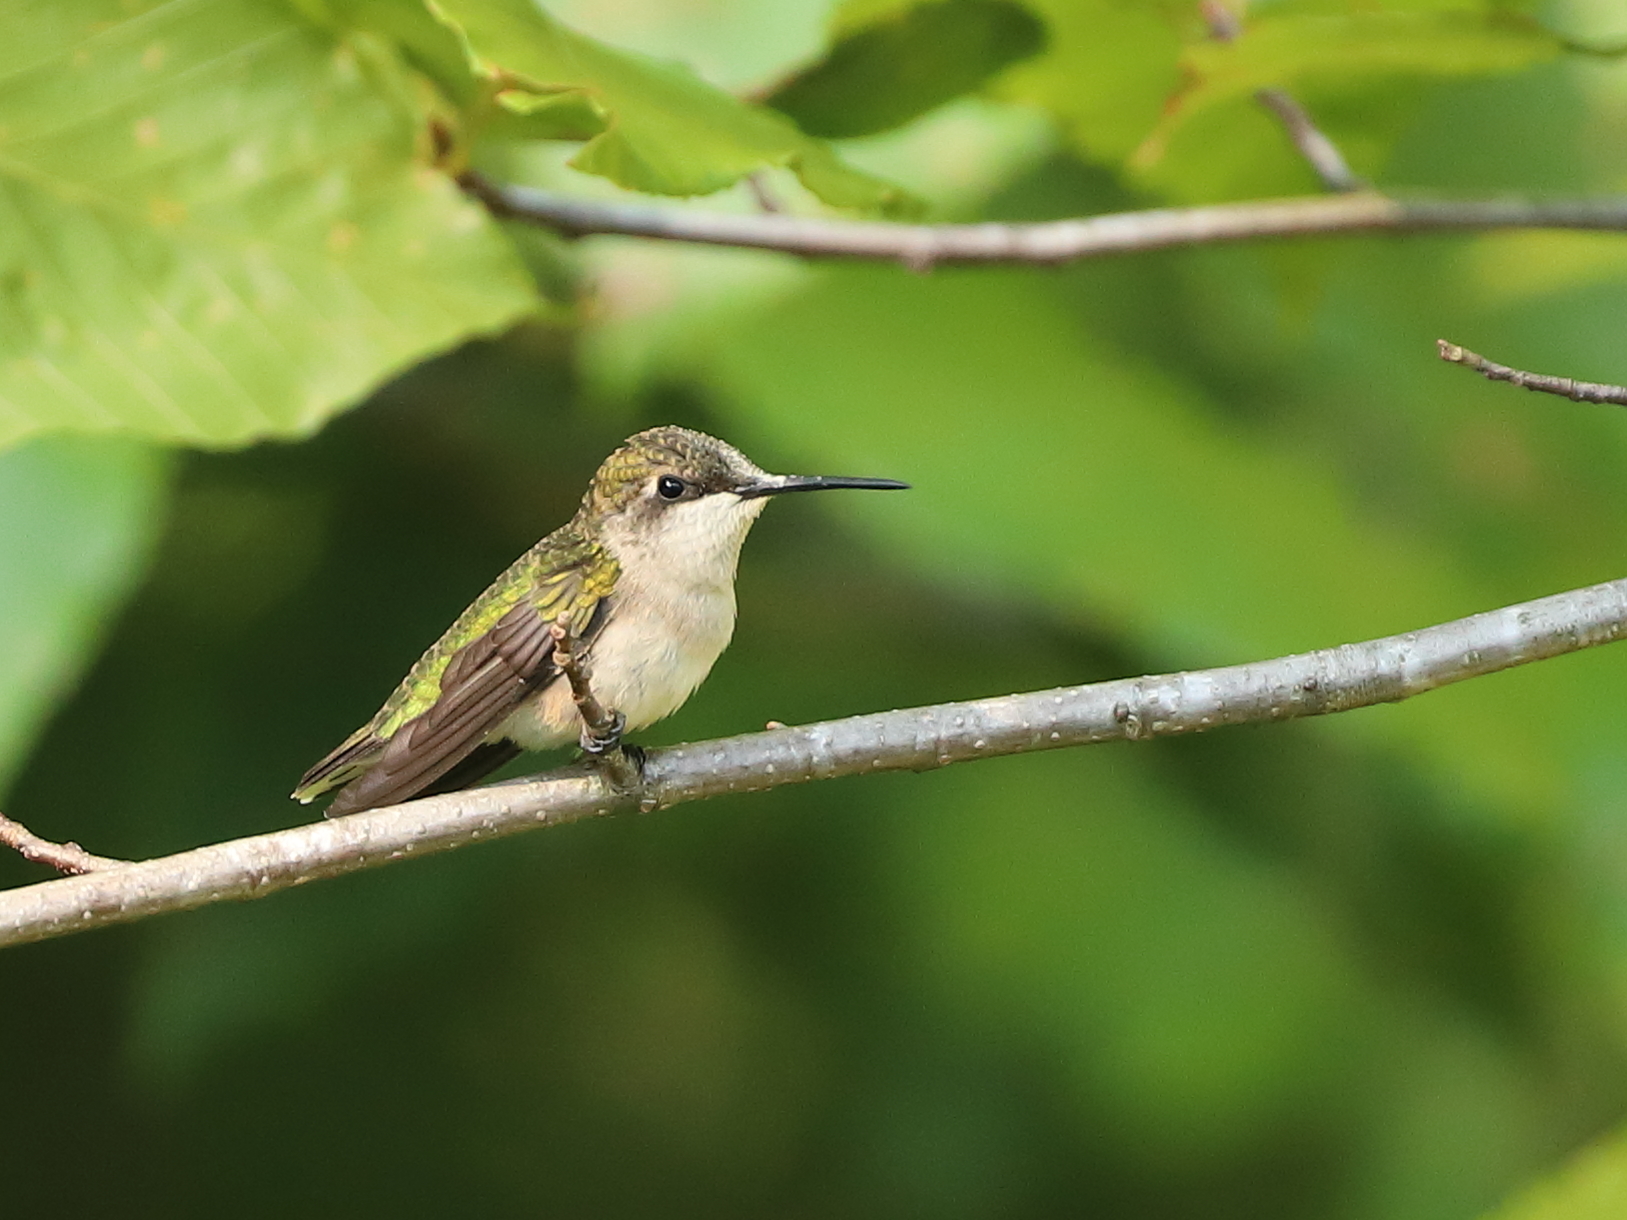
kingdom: Animalia
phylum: Chordata
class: Aves
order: Apodiformes
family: Trochilidae
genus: Archilochus
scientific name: Archilochus colubris
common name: Ruby-throated hummingbird
